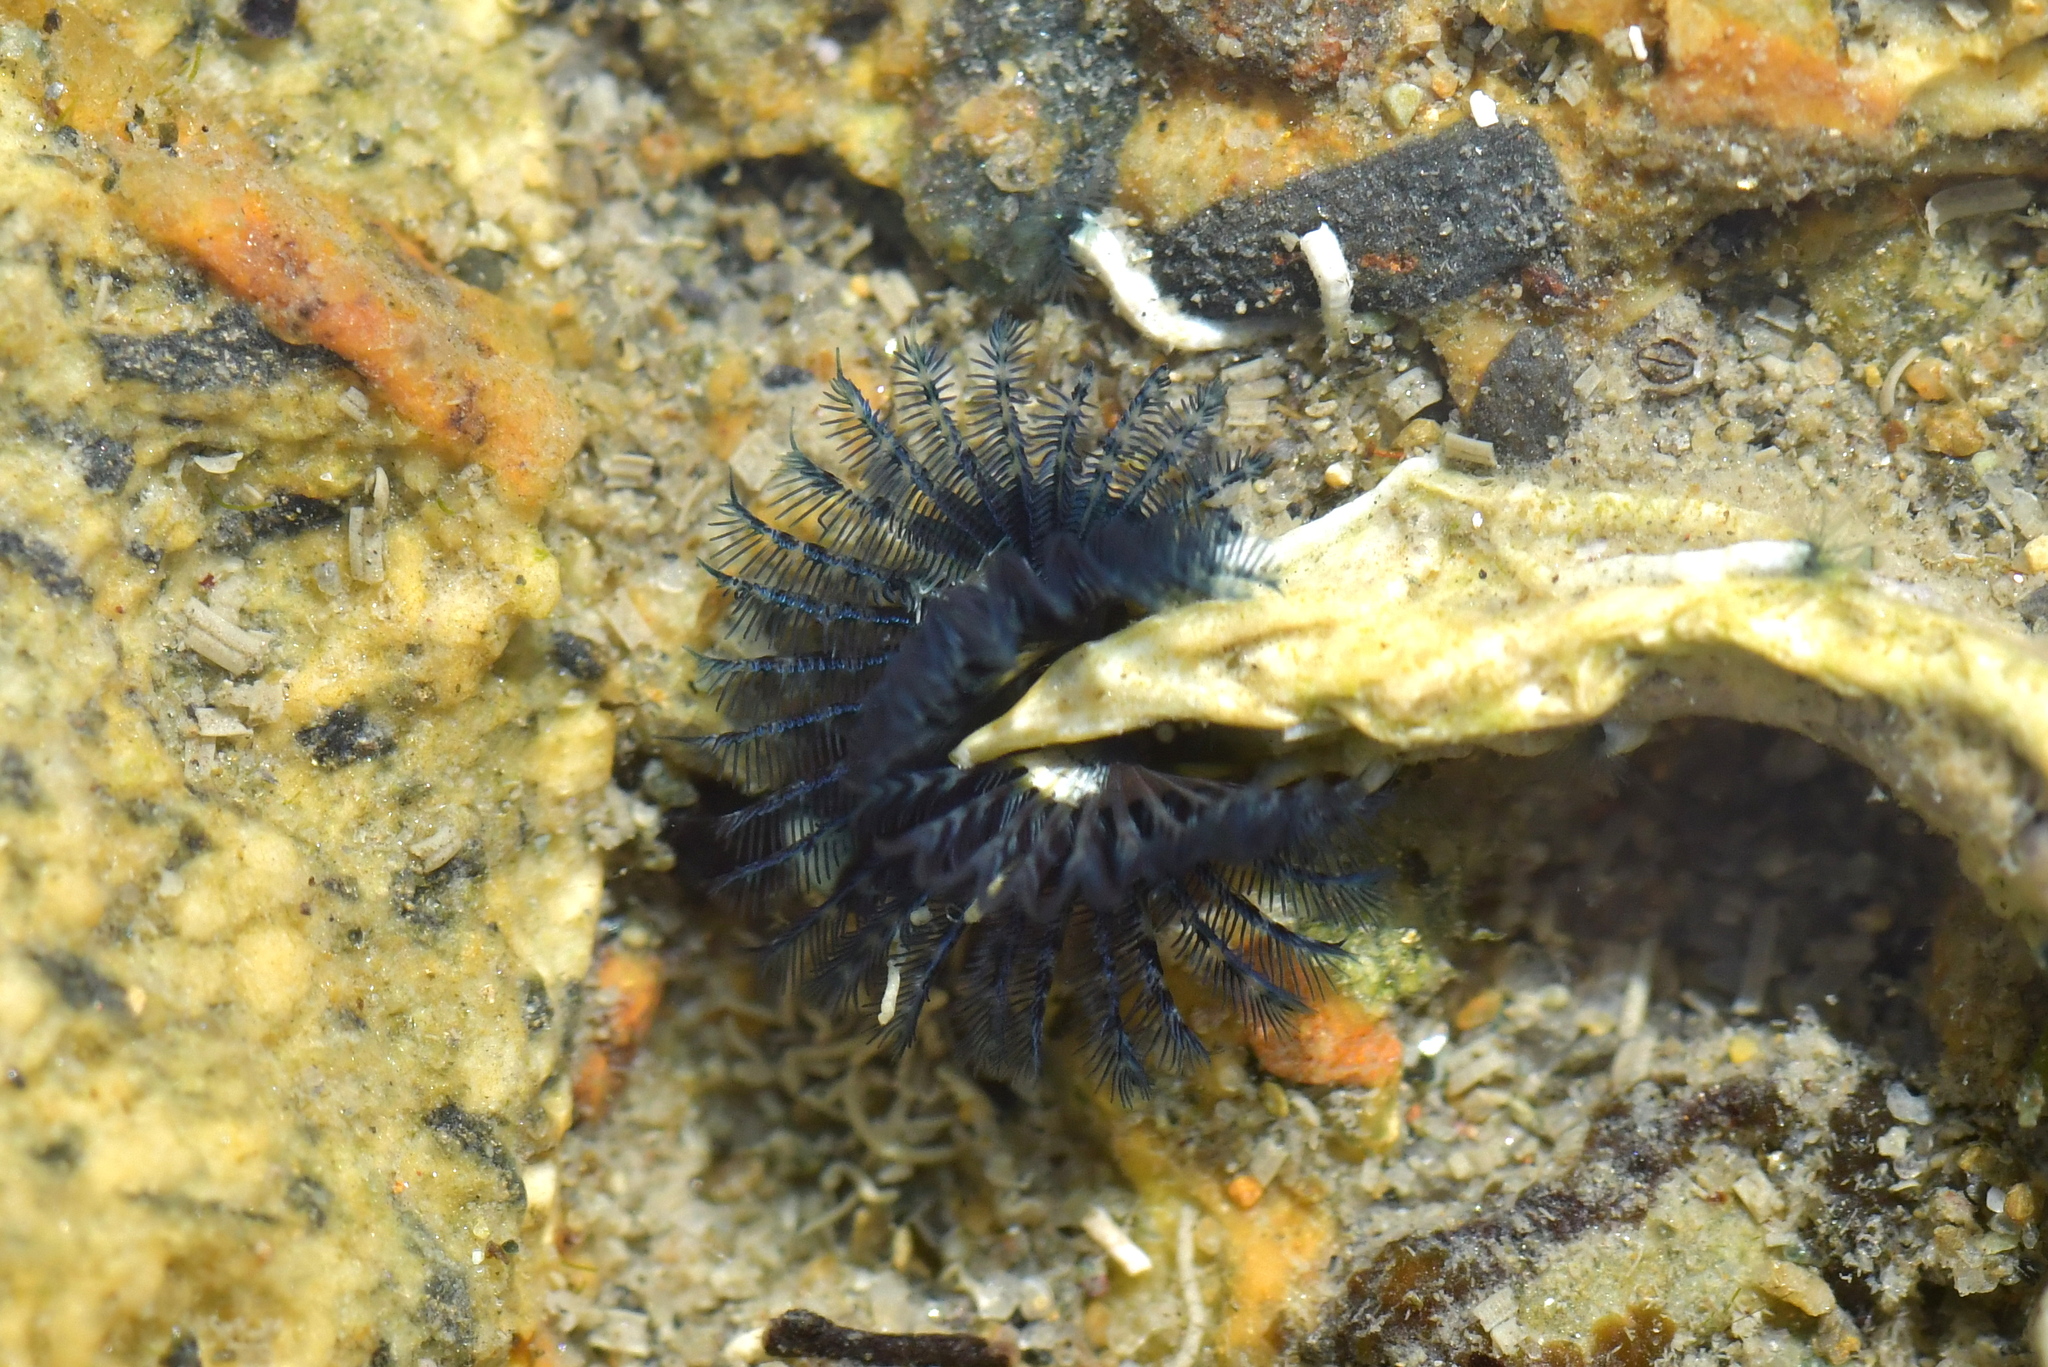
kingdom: Animalia
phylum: Annelida
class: Polychaeta
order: Sabellida
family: Serpulidae
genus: Spirobranchus
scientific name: Spirobranchus cariniferus
